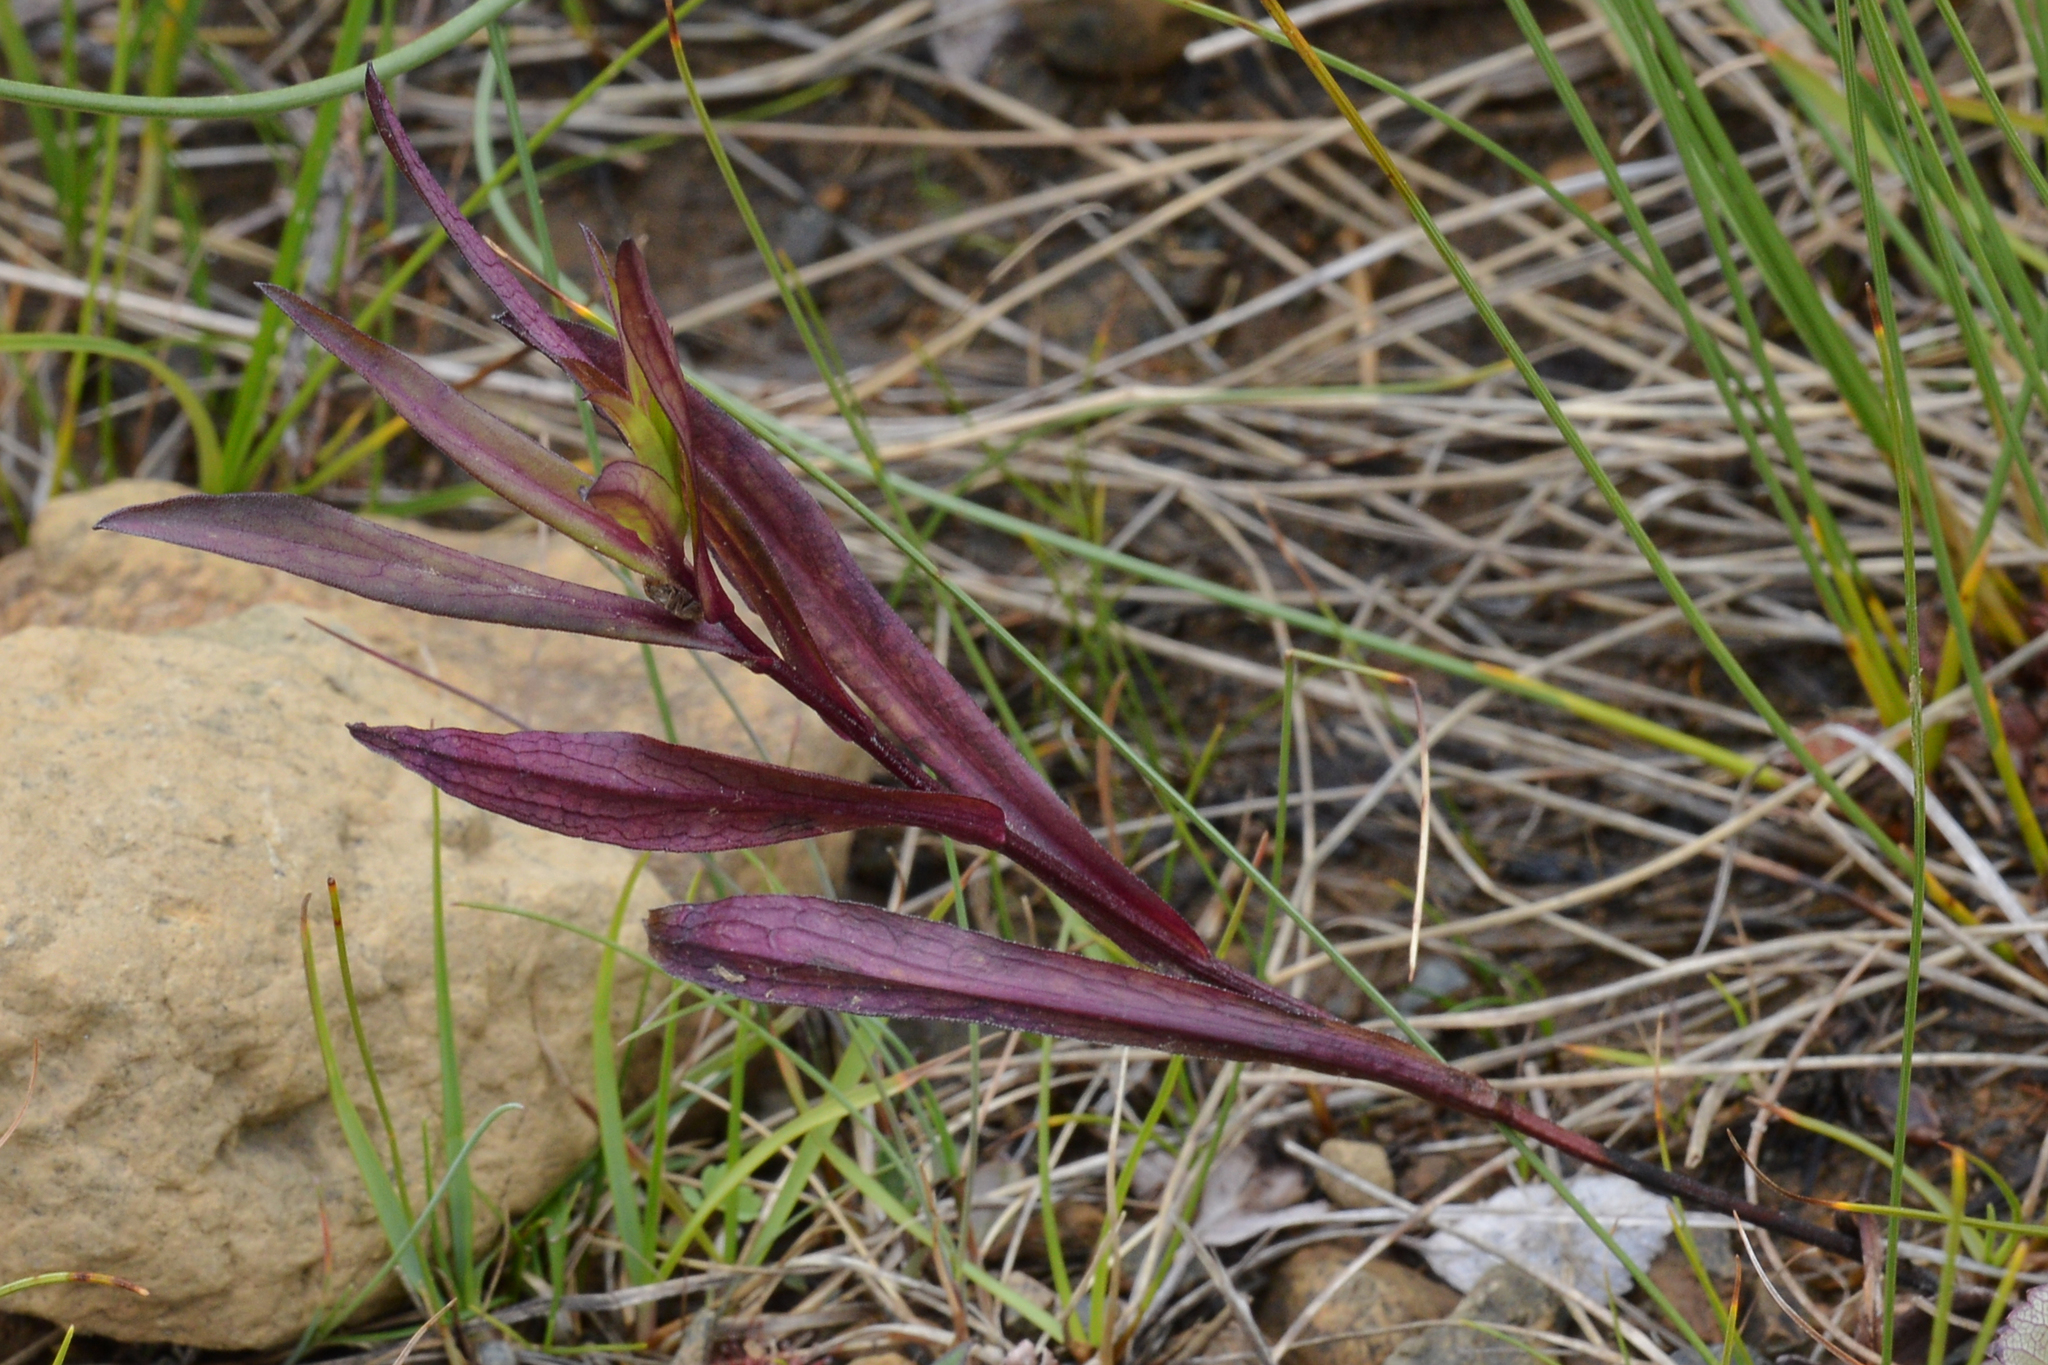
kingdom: Plantae
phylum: Tracheophyta
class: Magnoliopsida
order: Asterales
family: Asteraceae
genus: Symphyotrichum
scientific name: Symphyotrichum novi-belgii
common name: Michaelmas daisy
